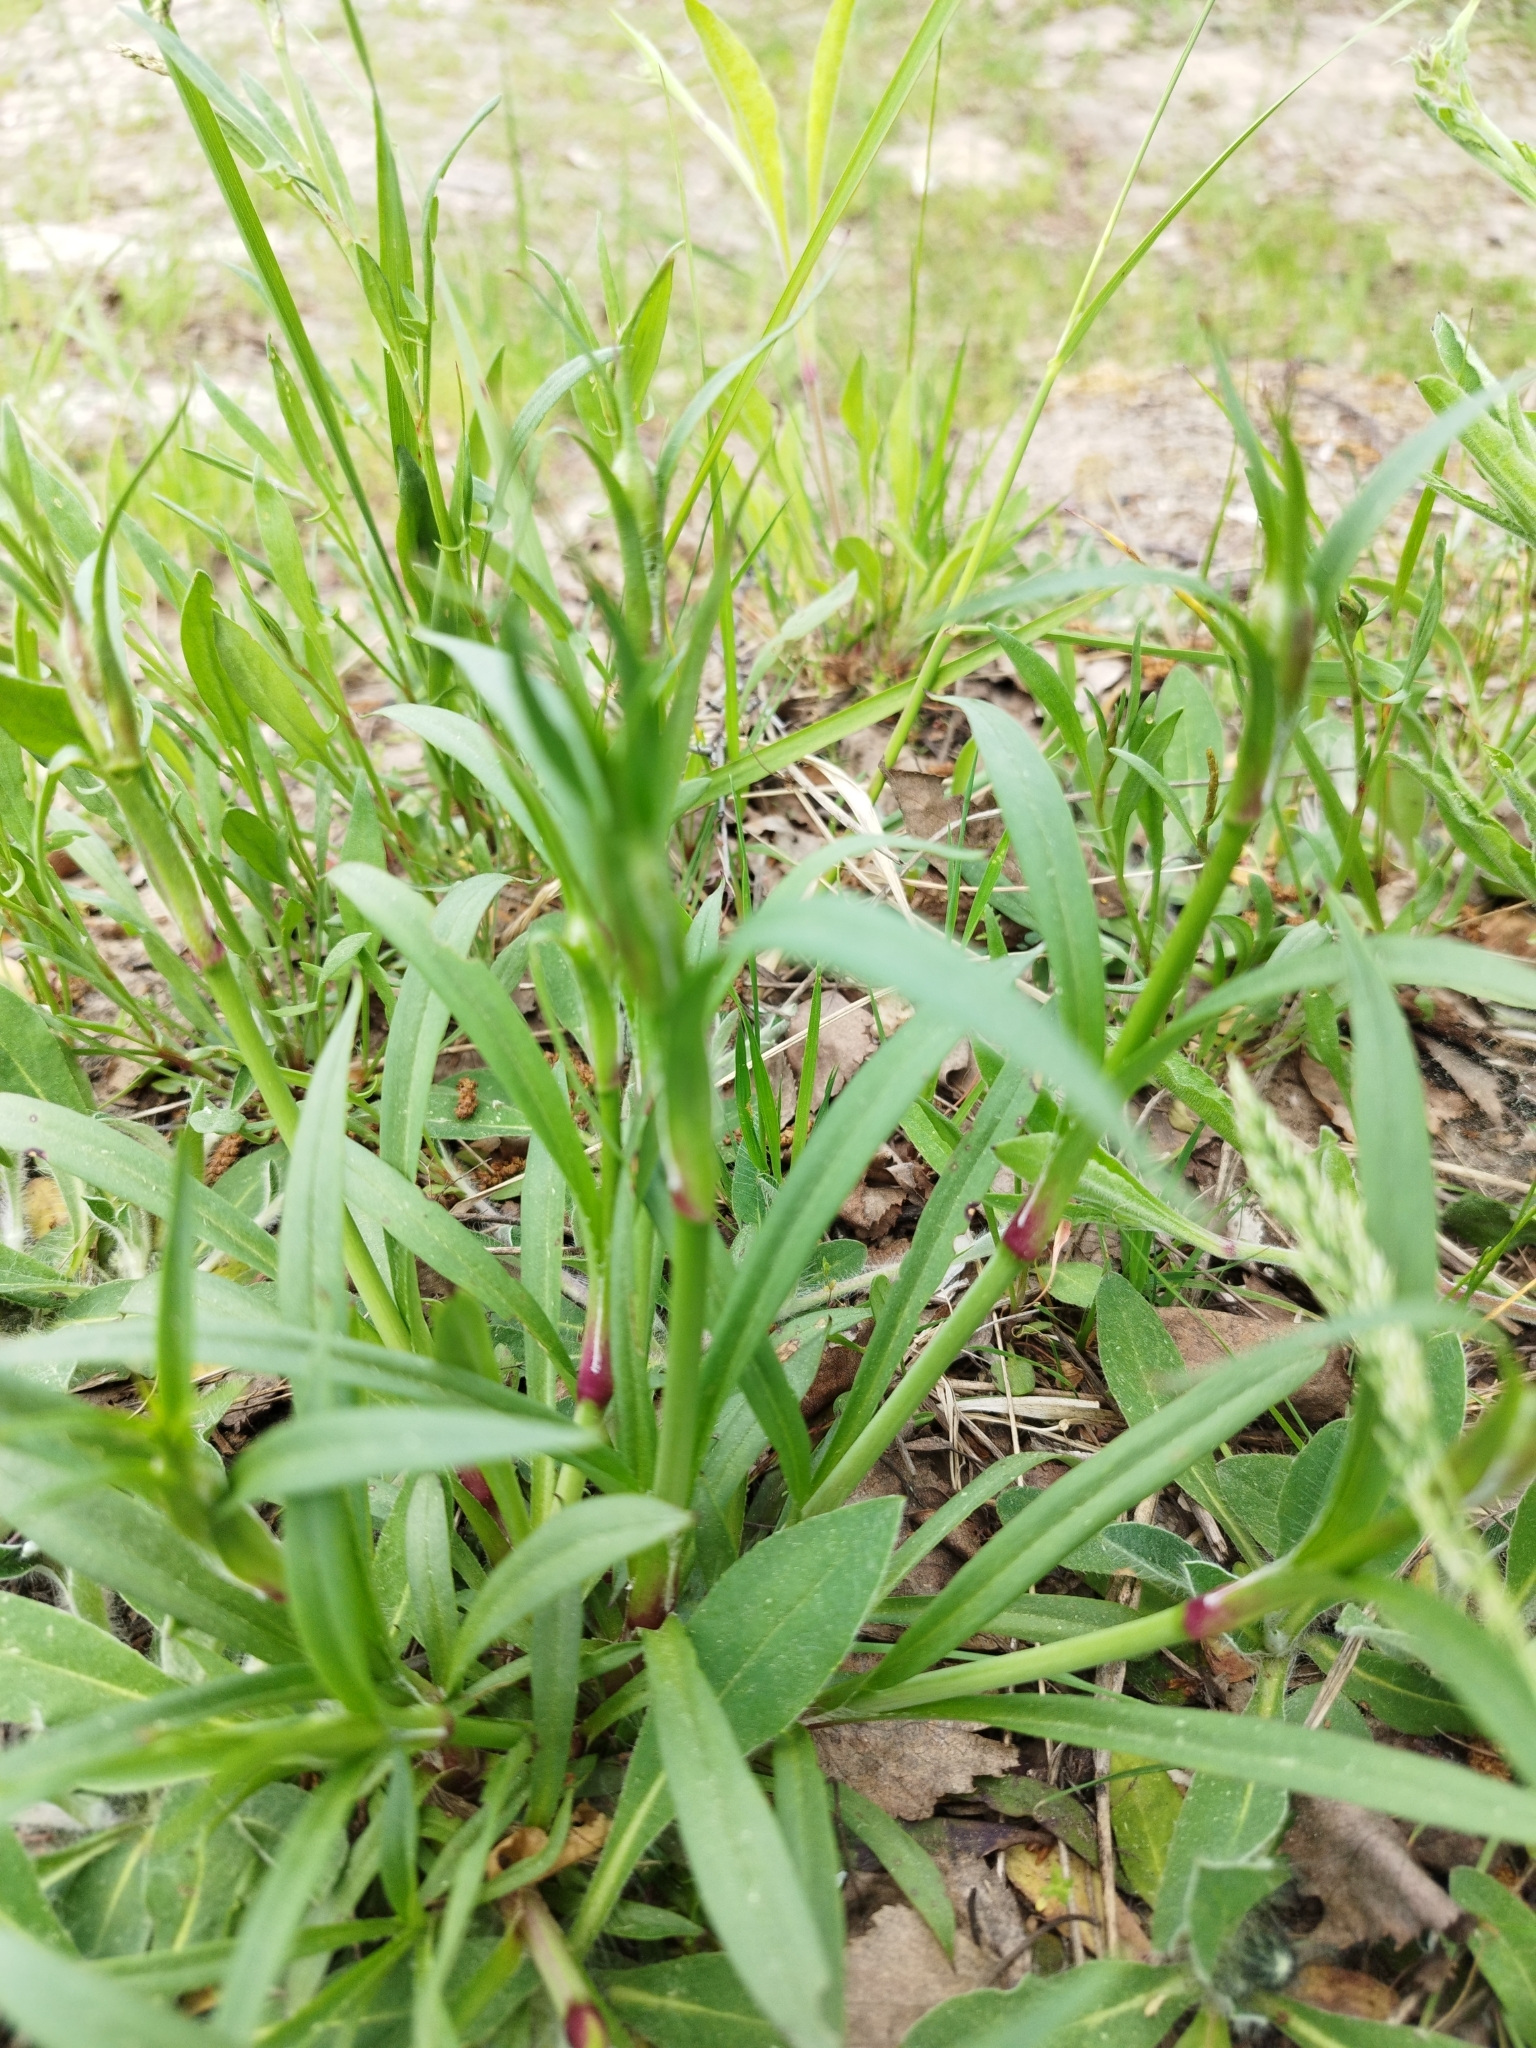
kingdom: Plantae
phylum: Tracheophyta
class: Magnoliopsida
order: Caryophyllales
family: Caryophyllaceae
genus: Viscaria
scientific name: Viscaria vulgaris
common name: Clammy campion
